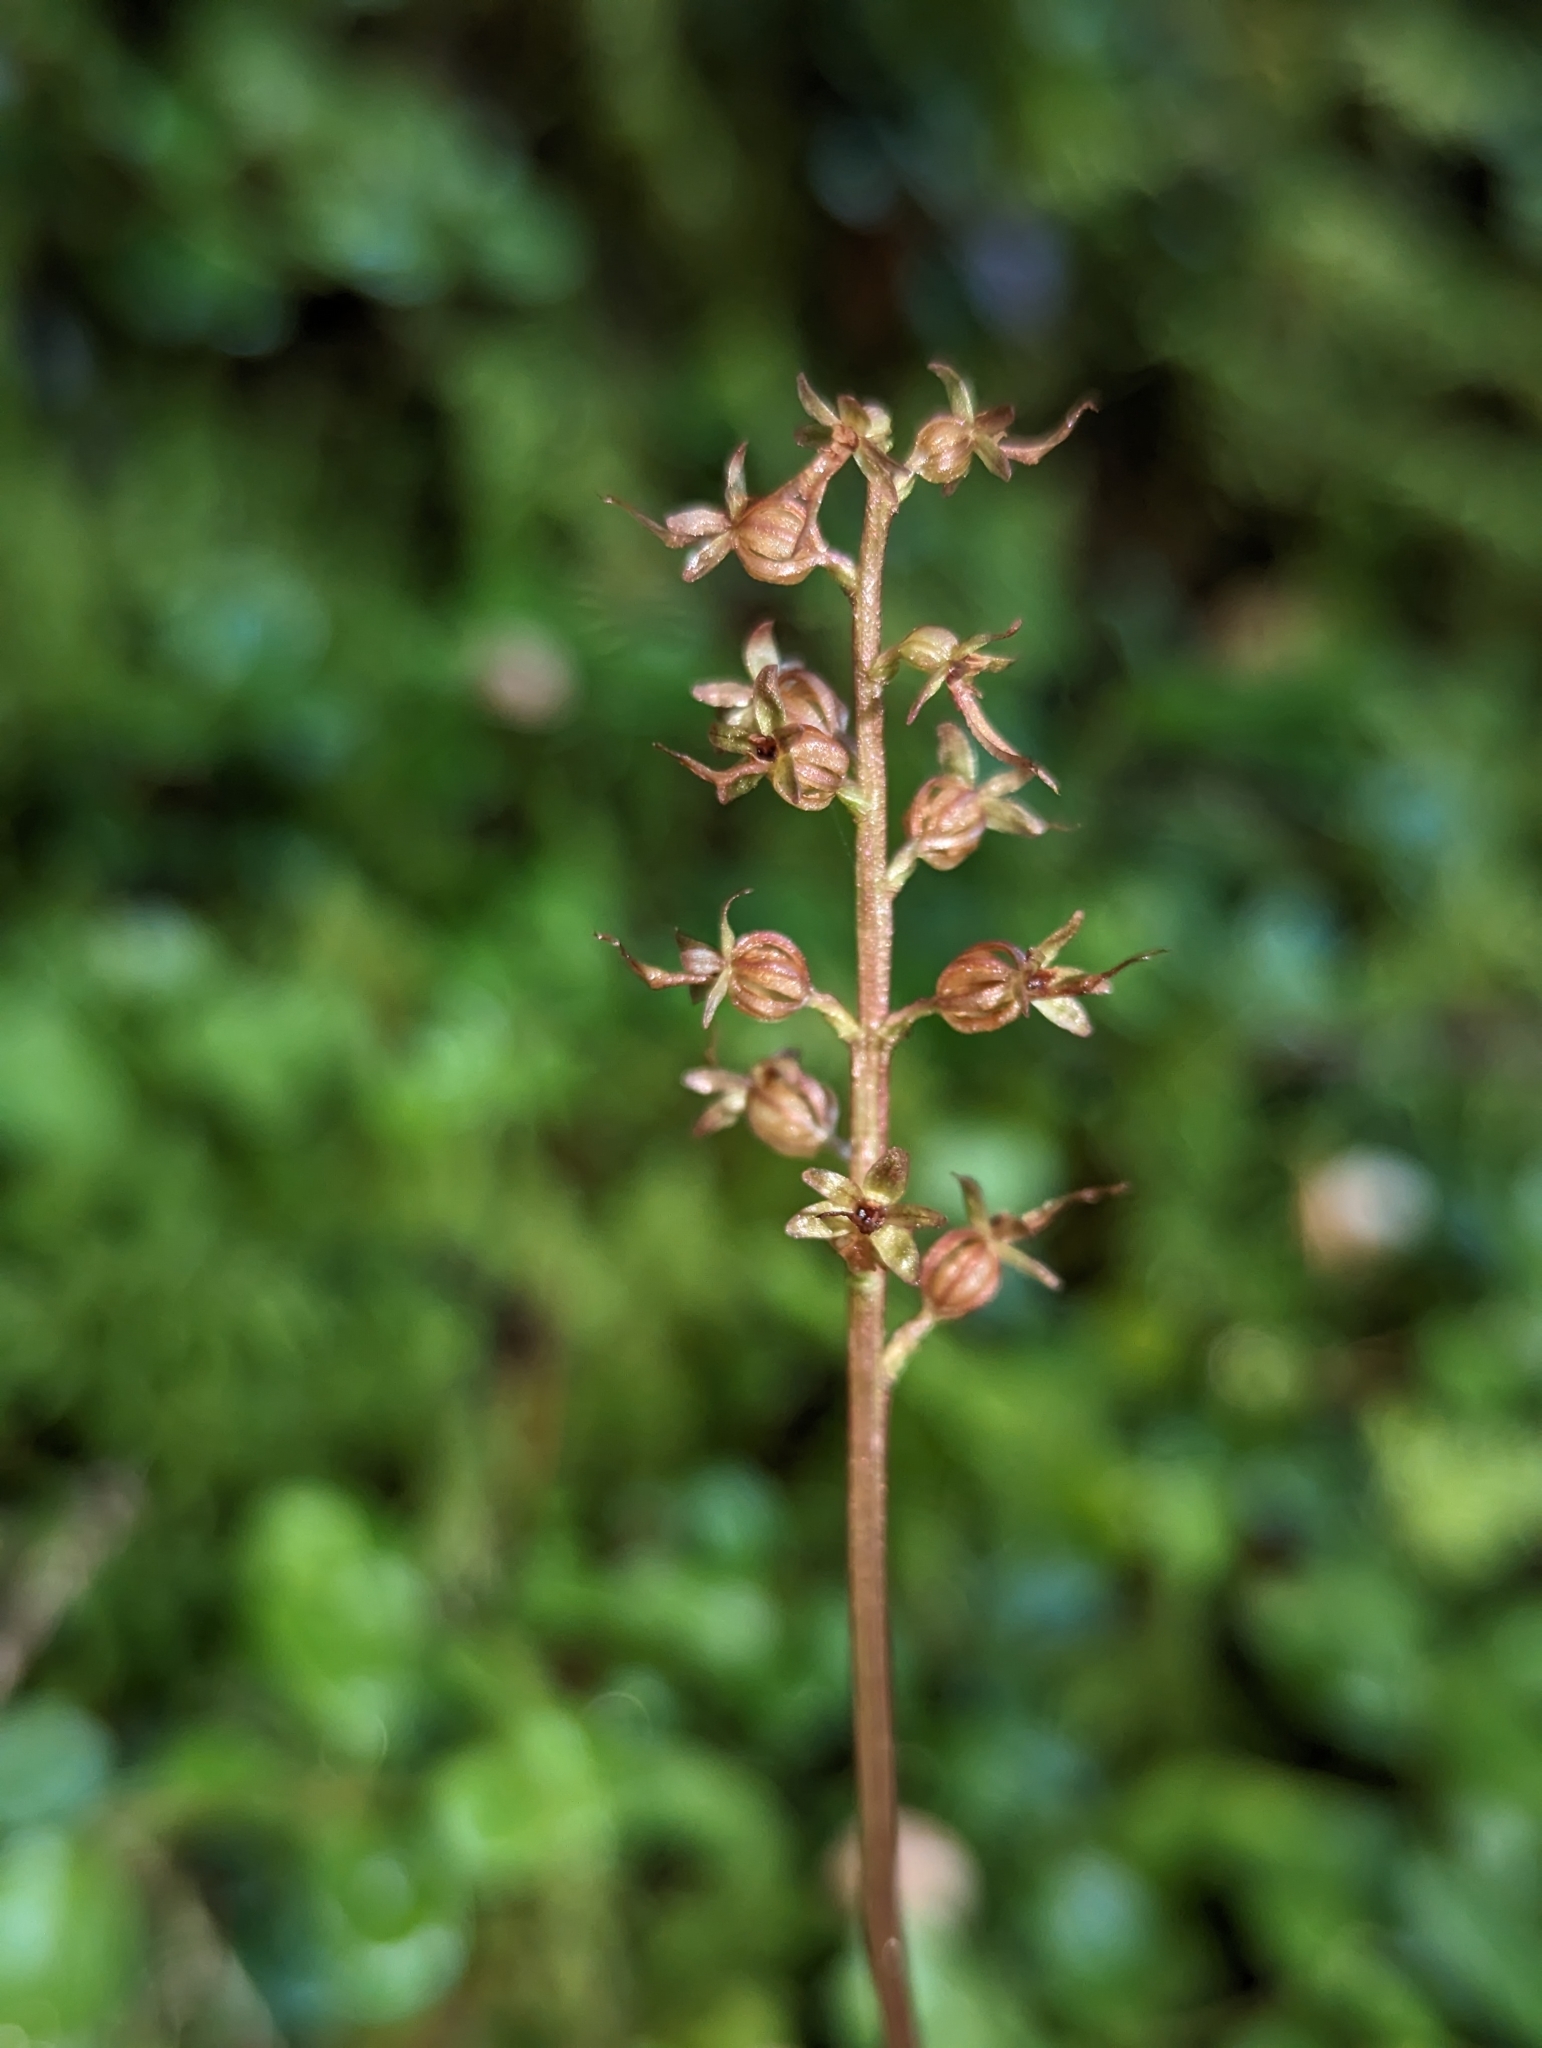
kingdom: Plantae
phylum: Tracheophyta
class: Liliopsida
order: Asparagales
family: Orchidaceae
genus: Neottia
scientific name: Neottia cordata
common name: Lesser twayblade
